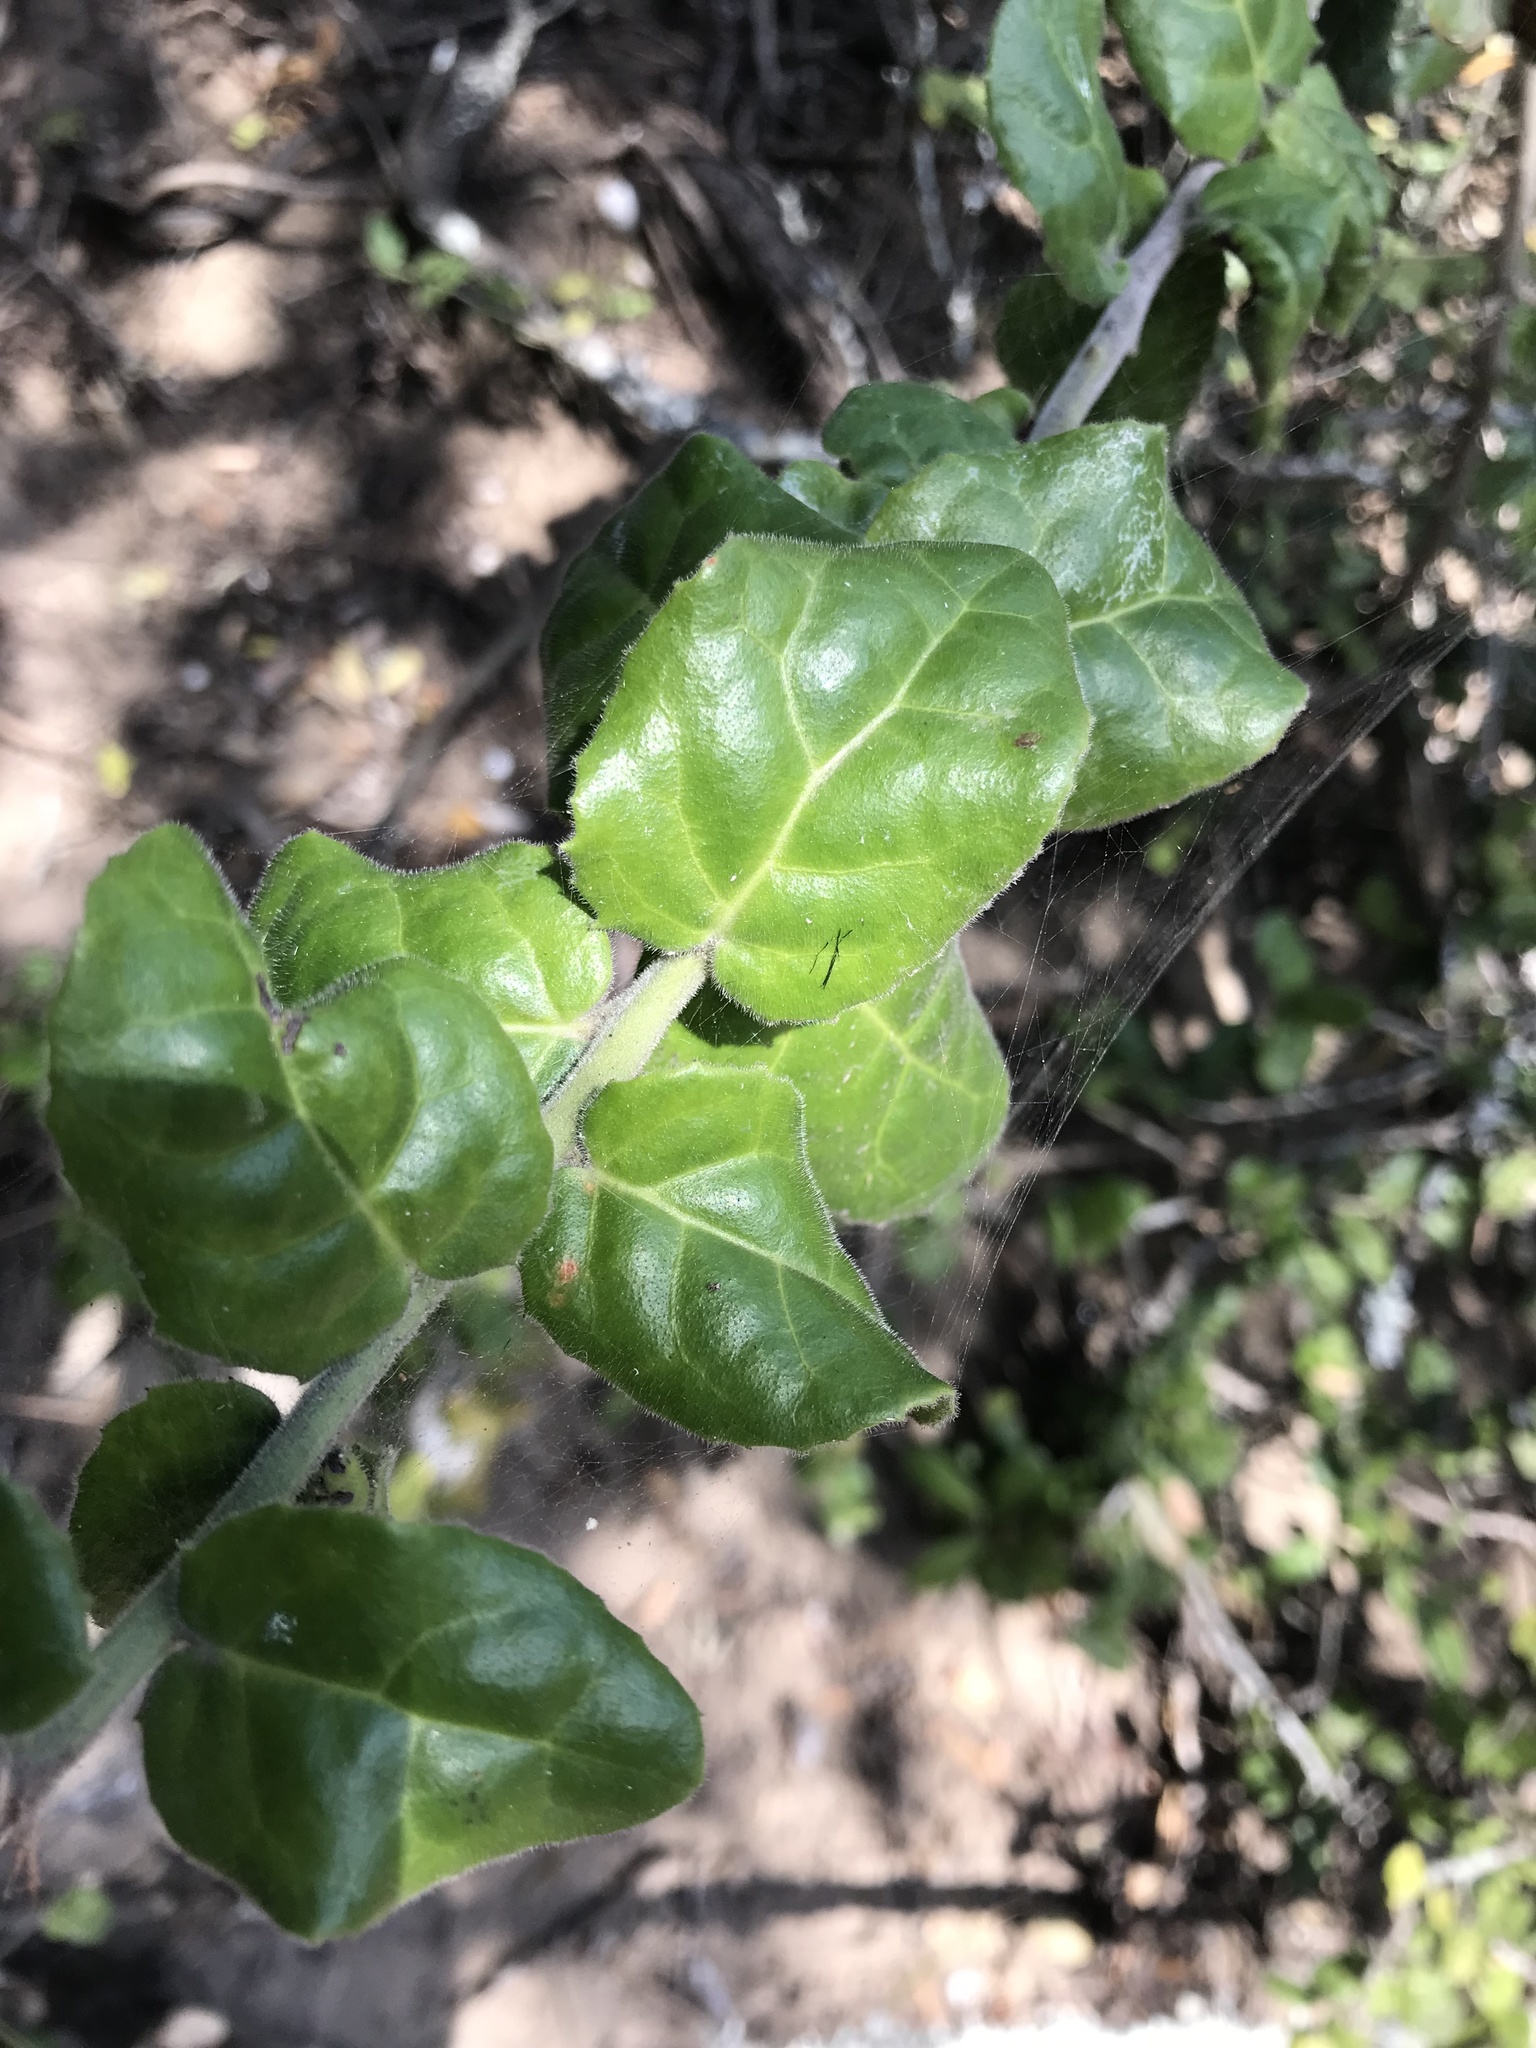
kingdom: Plantae
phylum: Tracheophyta
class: Magnoliopsida
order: Celastrales
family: Celastraceae
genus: Mystroxylon
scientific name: Mystroxylon aethiopicum
